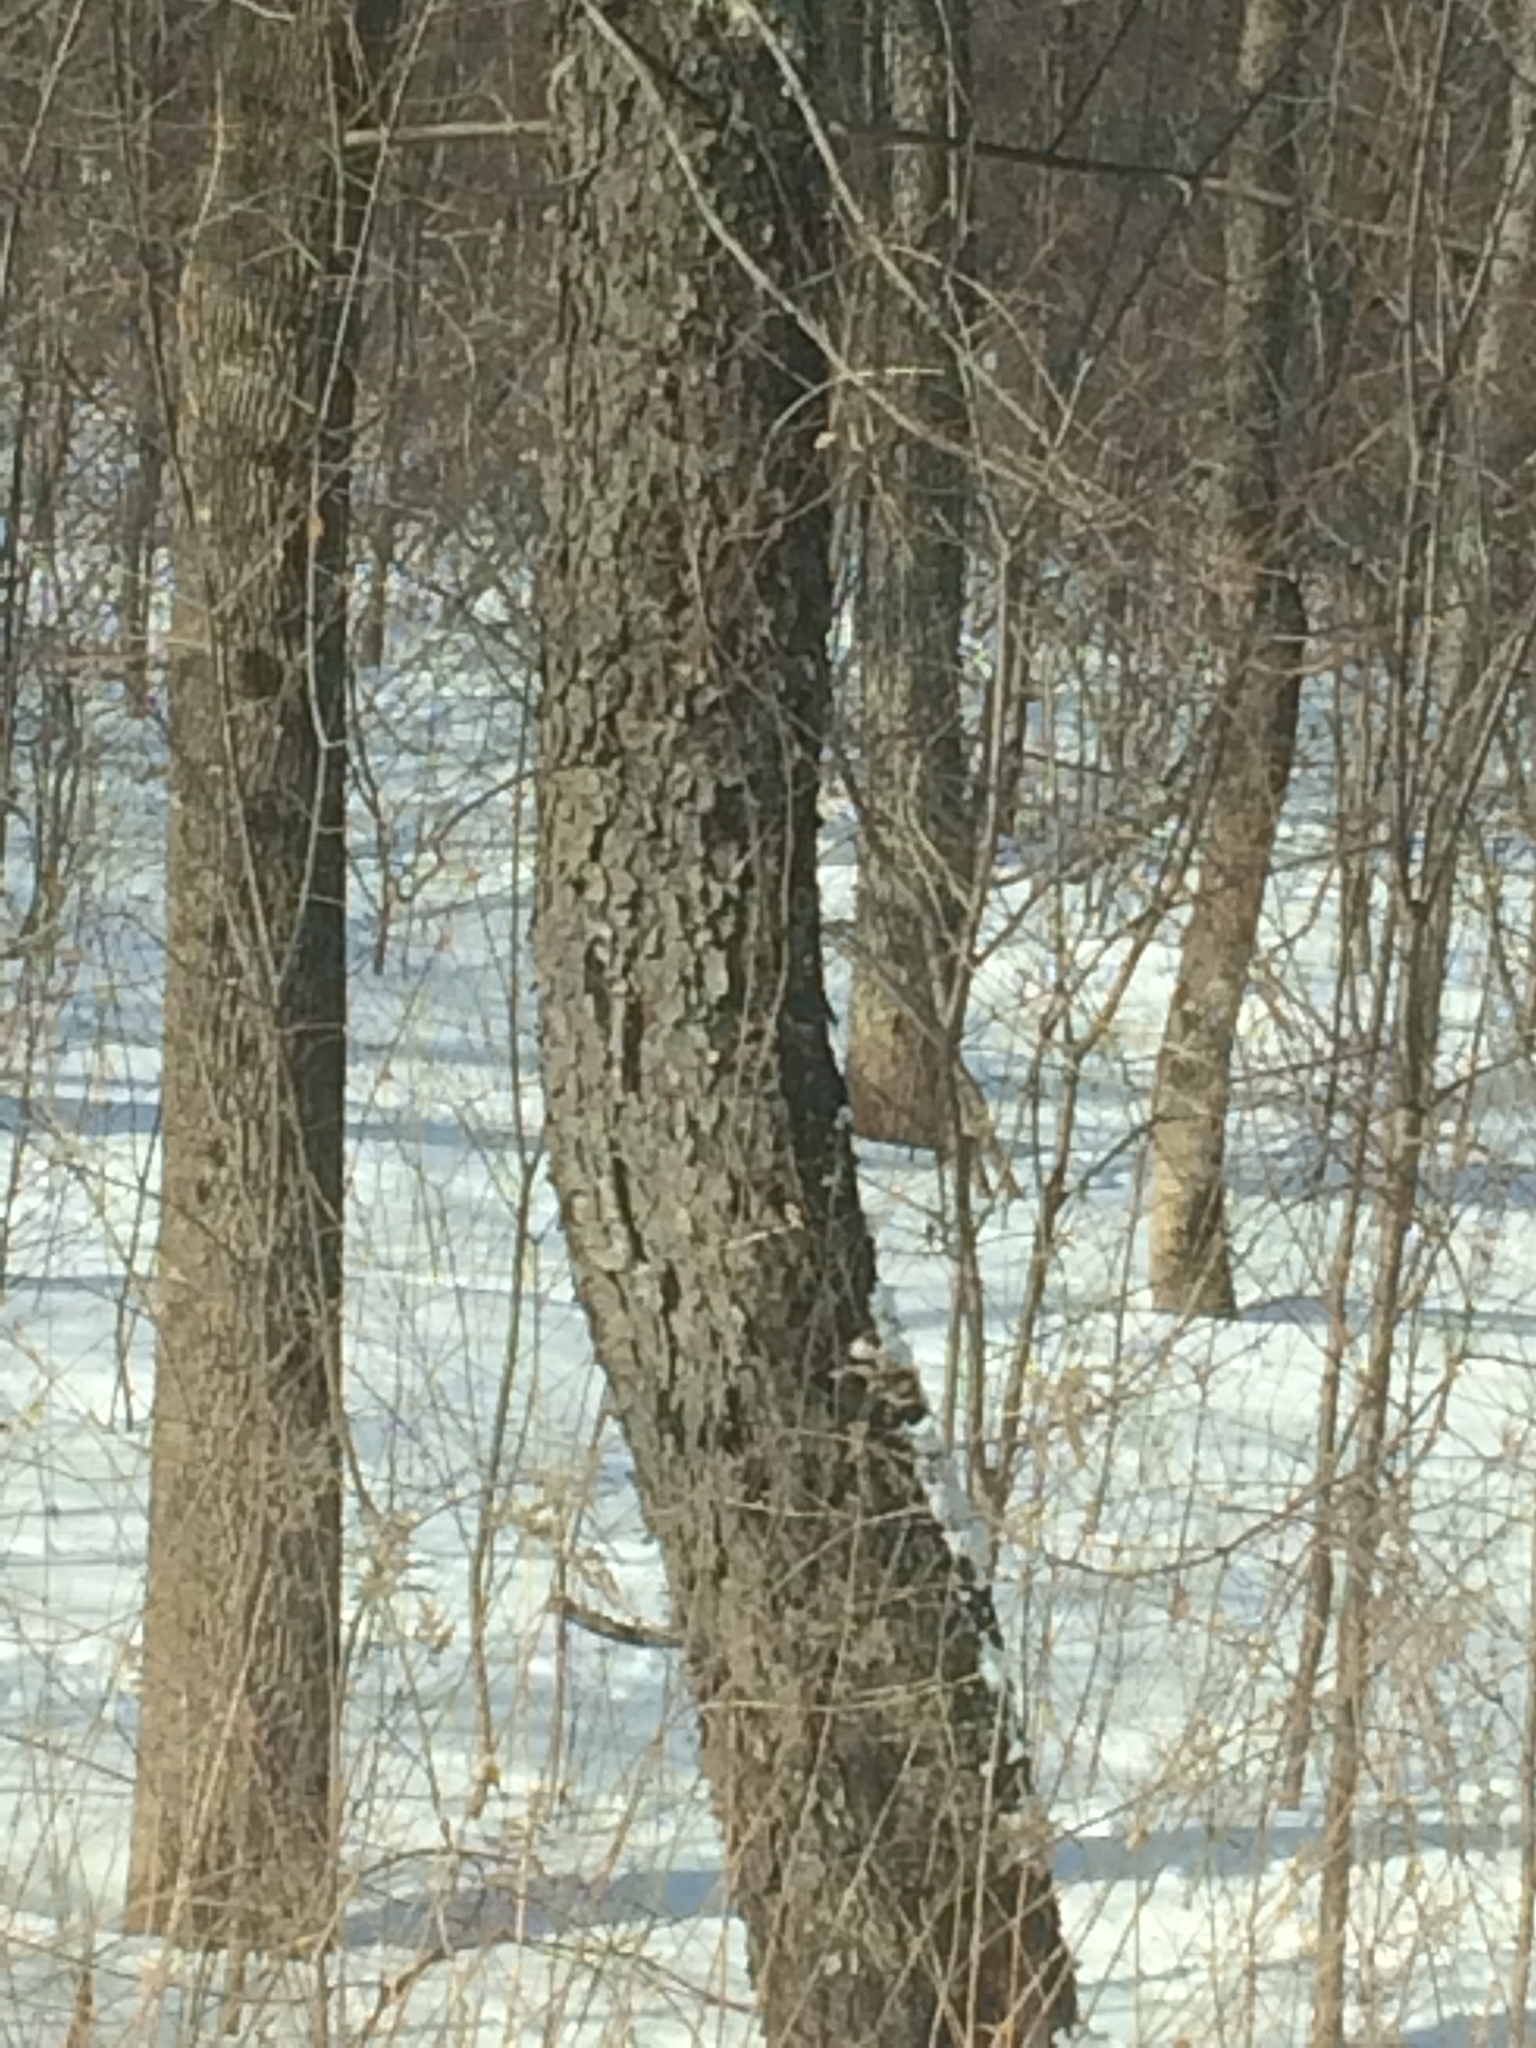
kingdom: Plantae
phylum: Tracheophyta
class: Magnoliopsida
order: Rosales
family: Rosaceae
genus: Prunus
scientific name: Prunus serotina
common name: Black cherry
